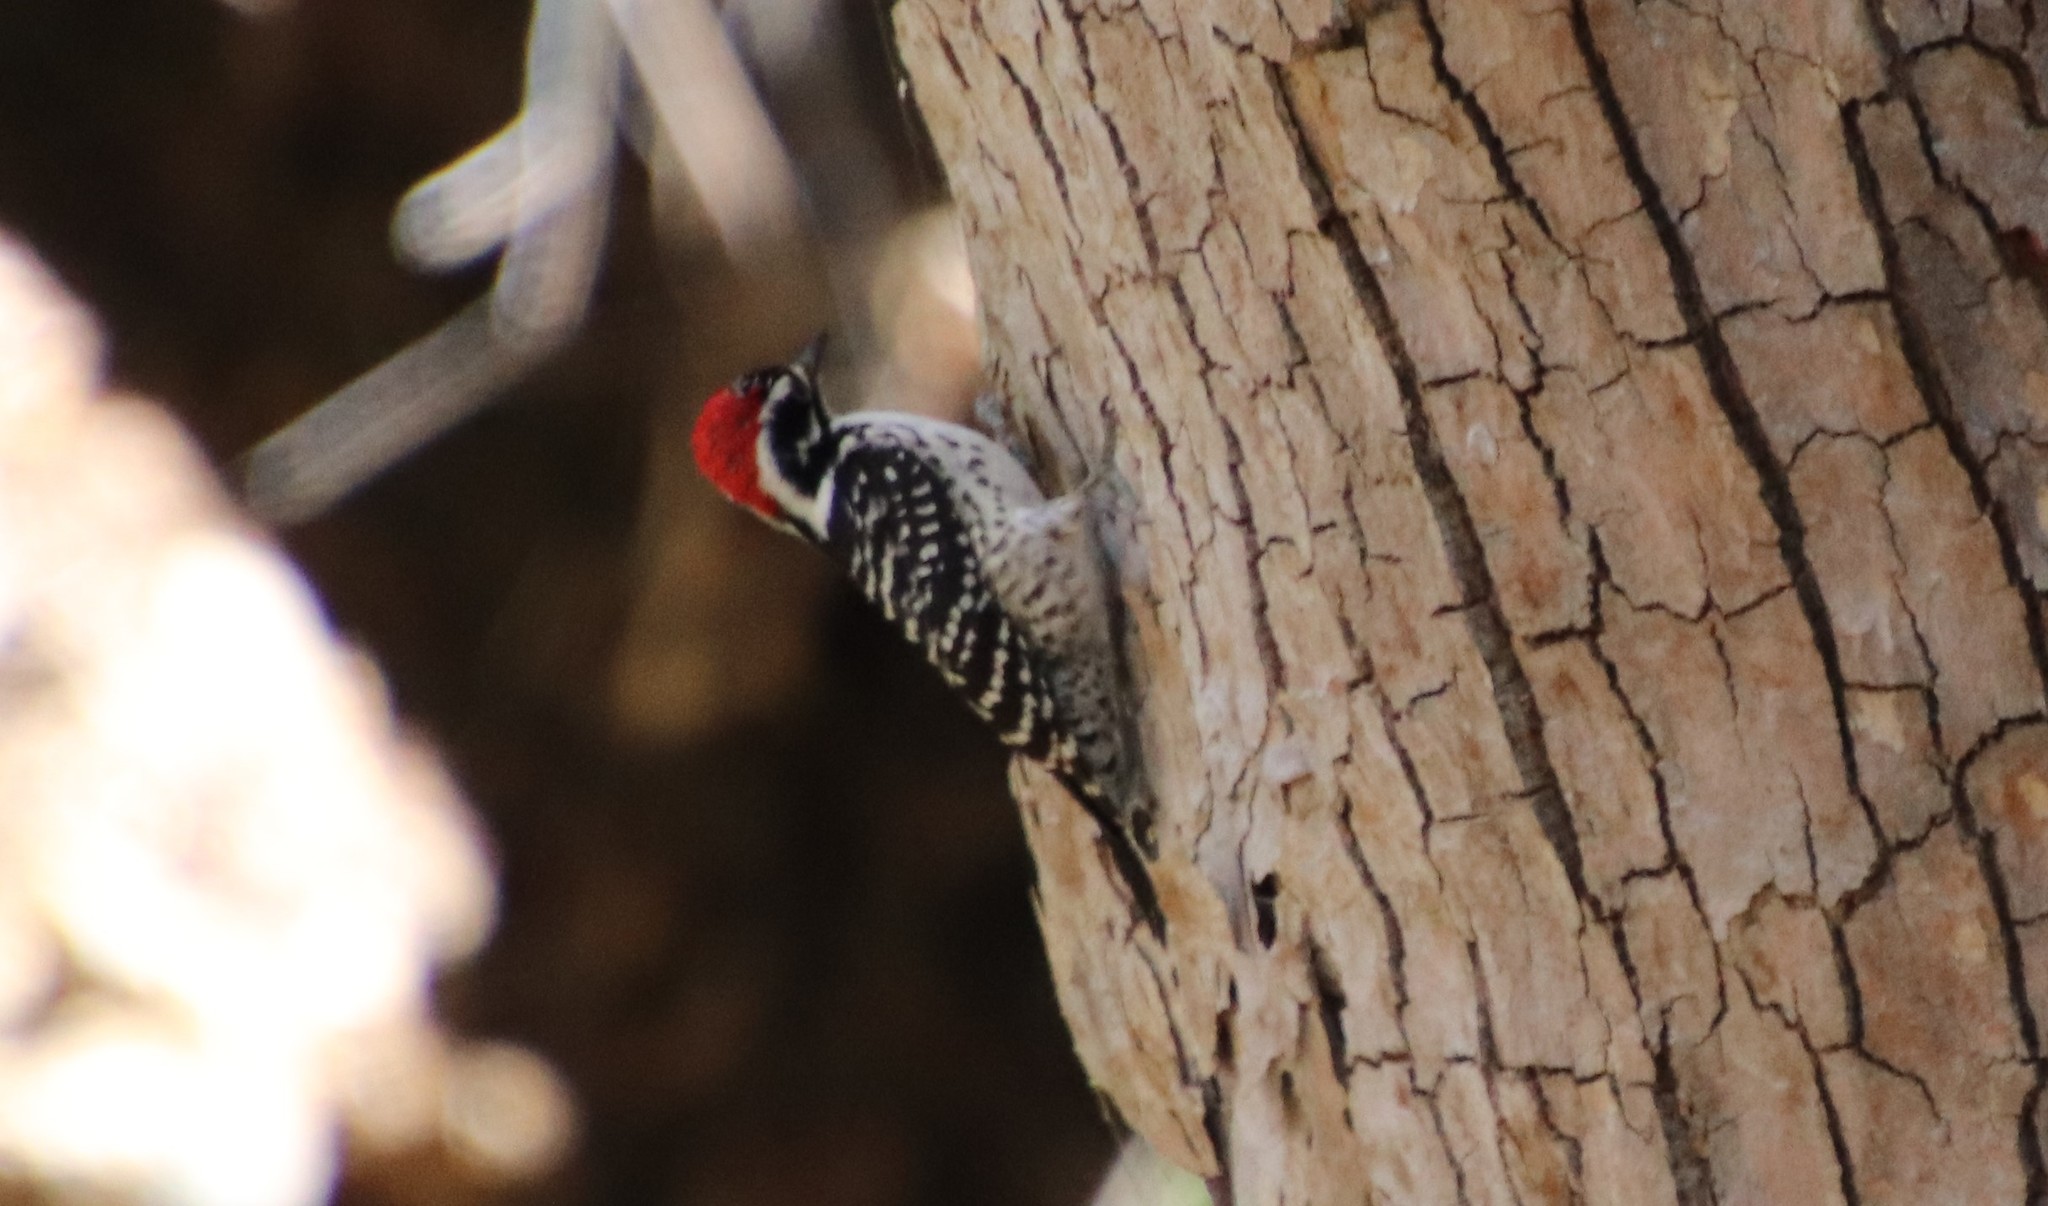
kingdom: Animalia
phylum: Chordata
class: Aves
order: Piciformes
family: Picidae
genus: Dryobates
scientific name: Dryobates nuttallii
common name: Nuttall's woodpecker
